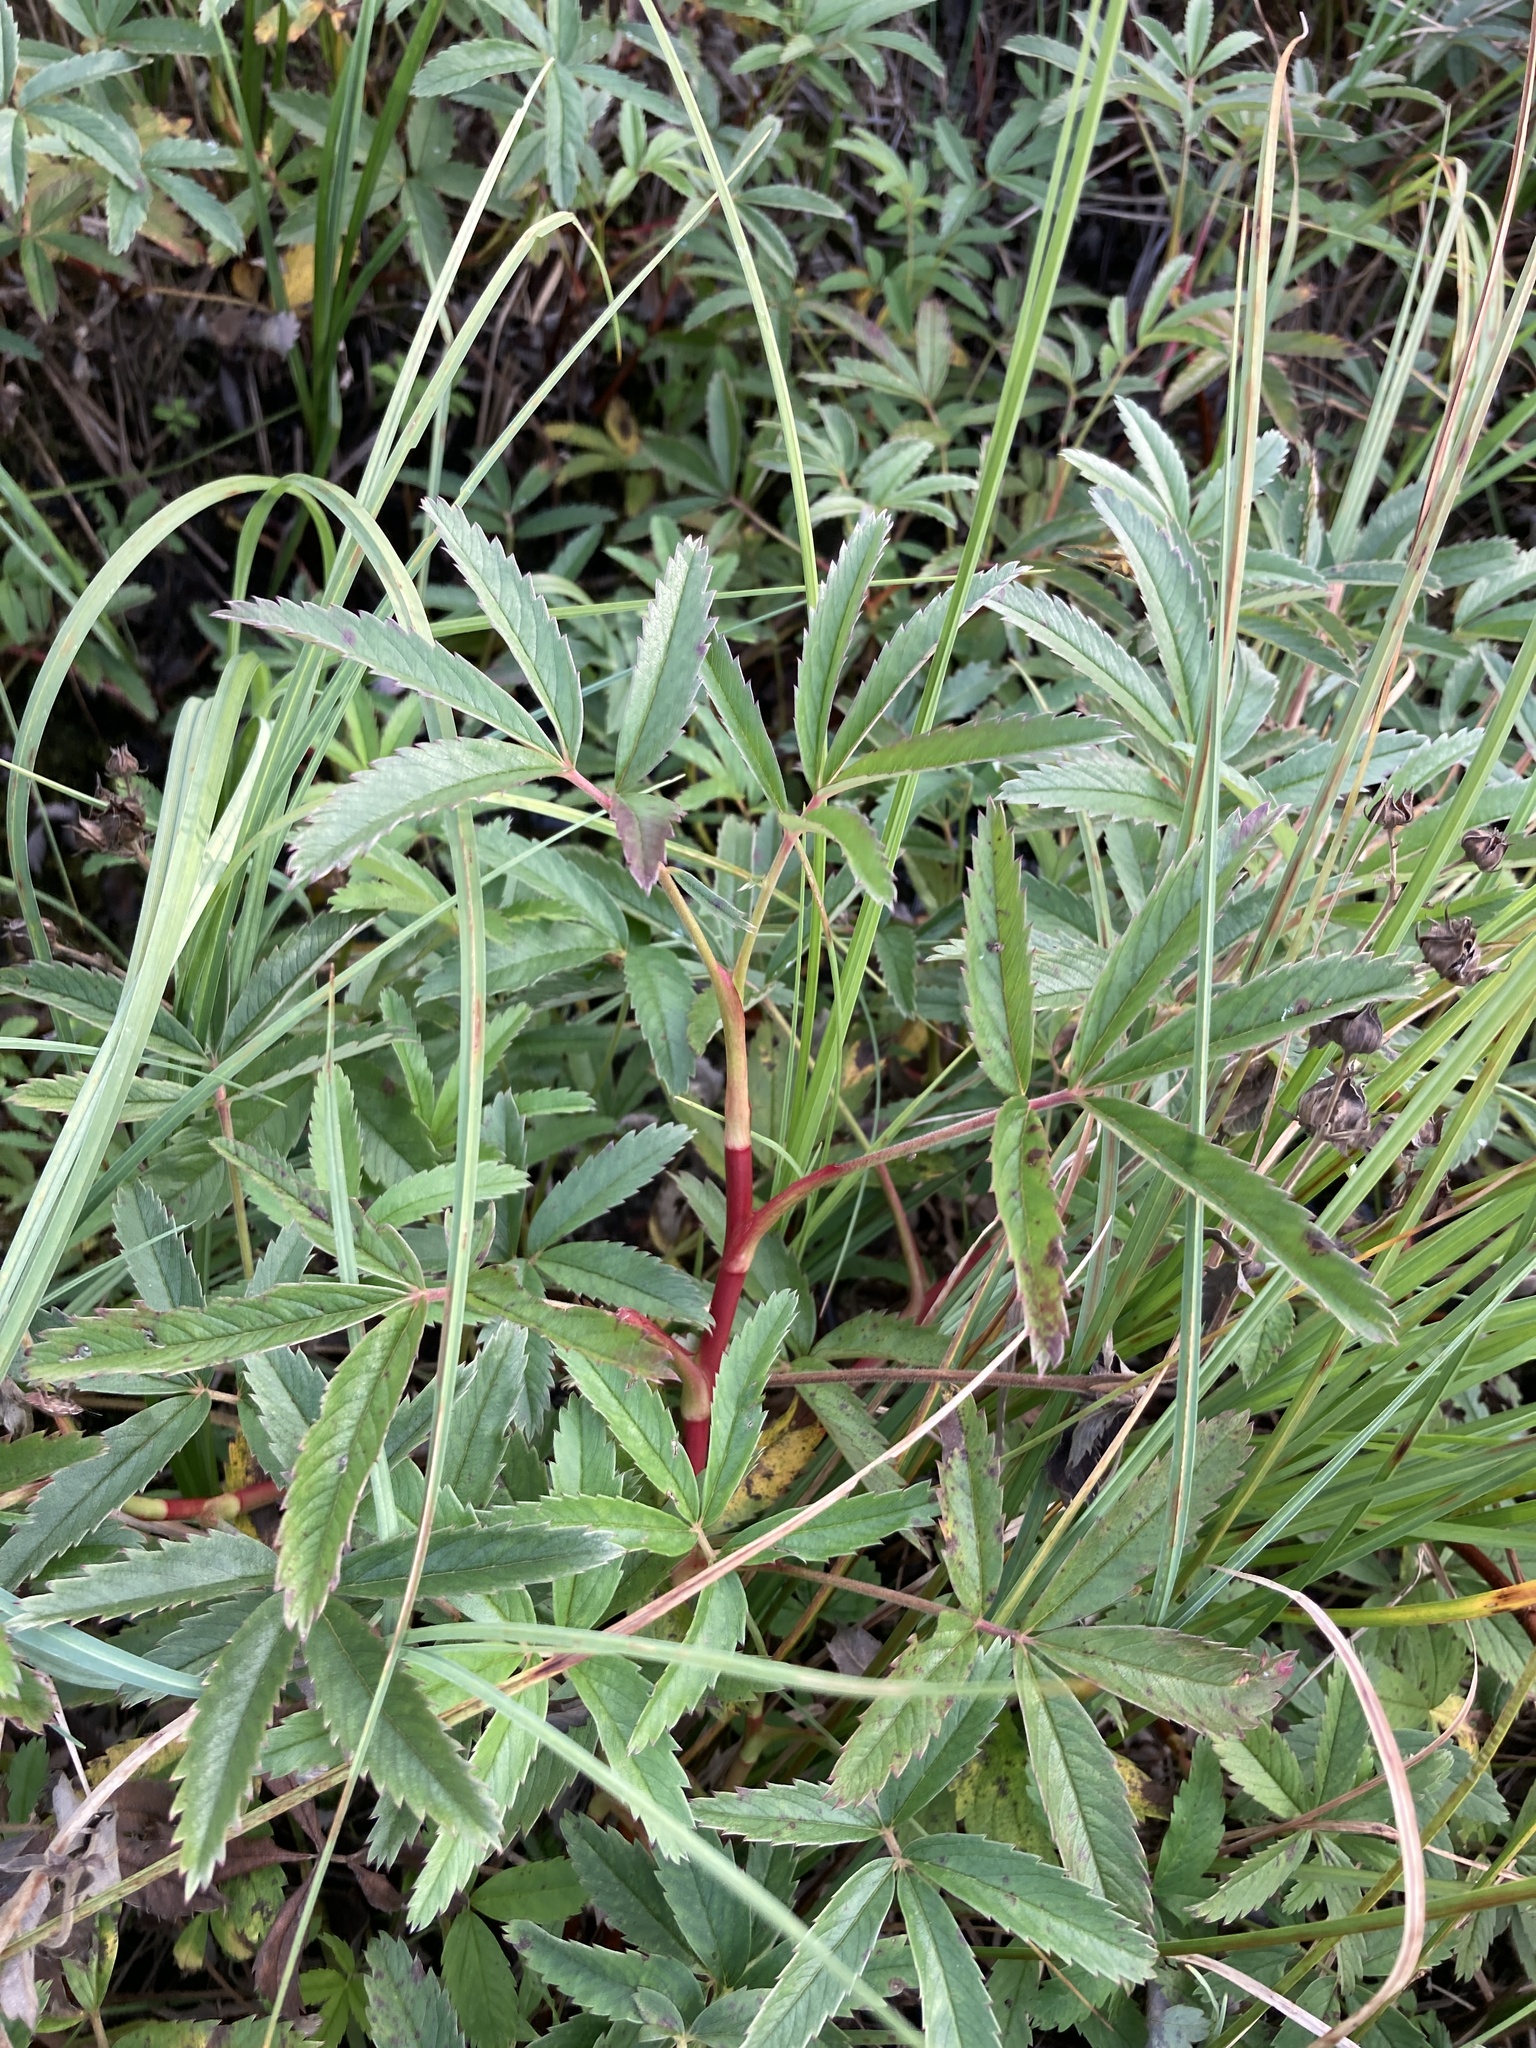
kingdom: Plantae
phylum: Tracheophyta
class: Magnoliopsida
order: Rosales
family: Rosaceae
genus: Comarum
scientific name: Comarum palustre
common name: Marsh cinquefoil
